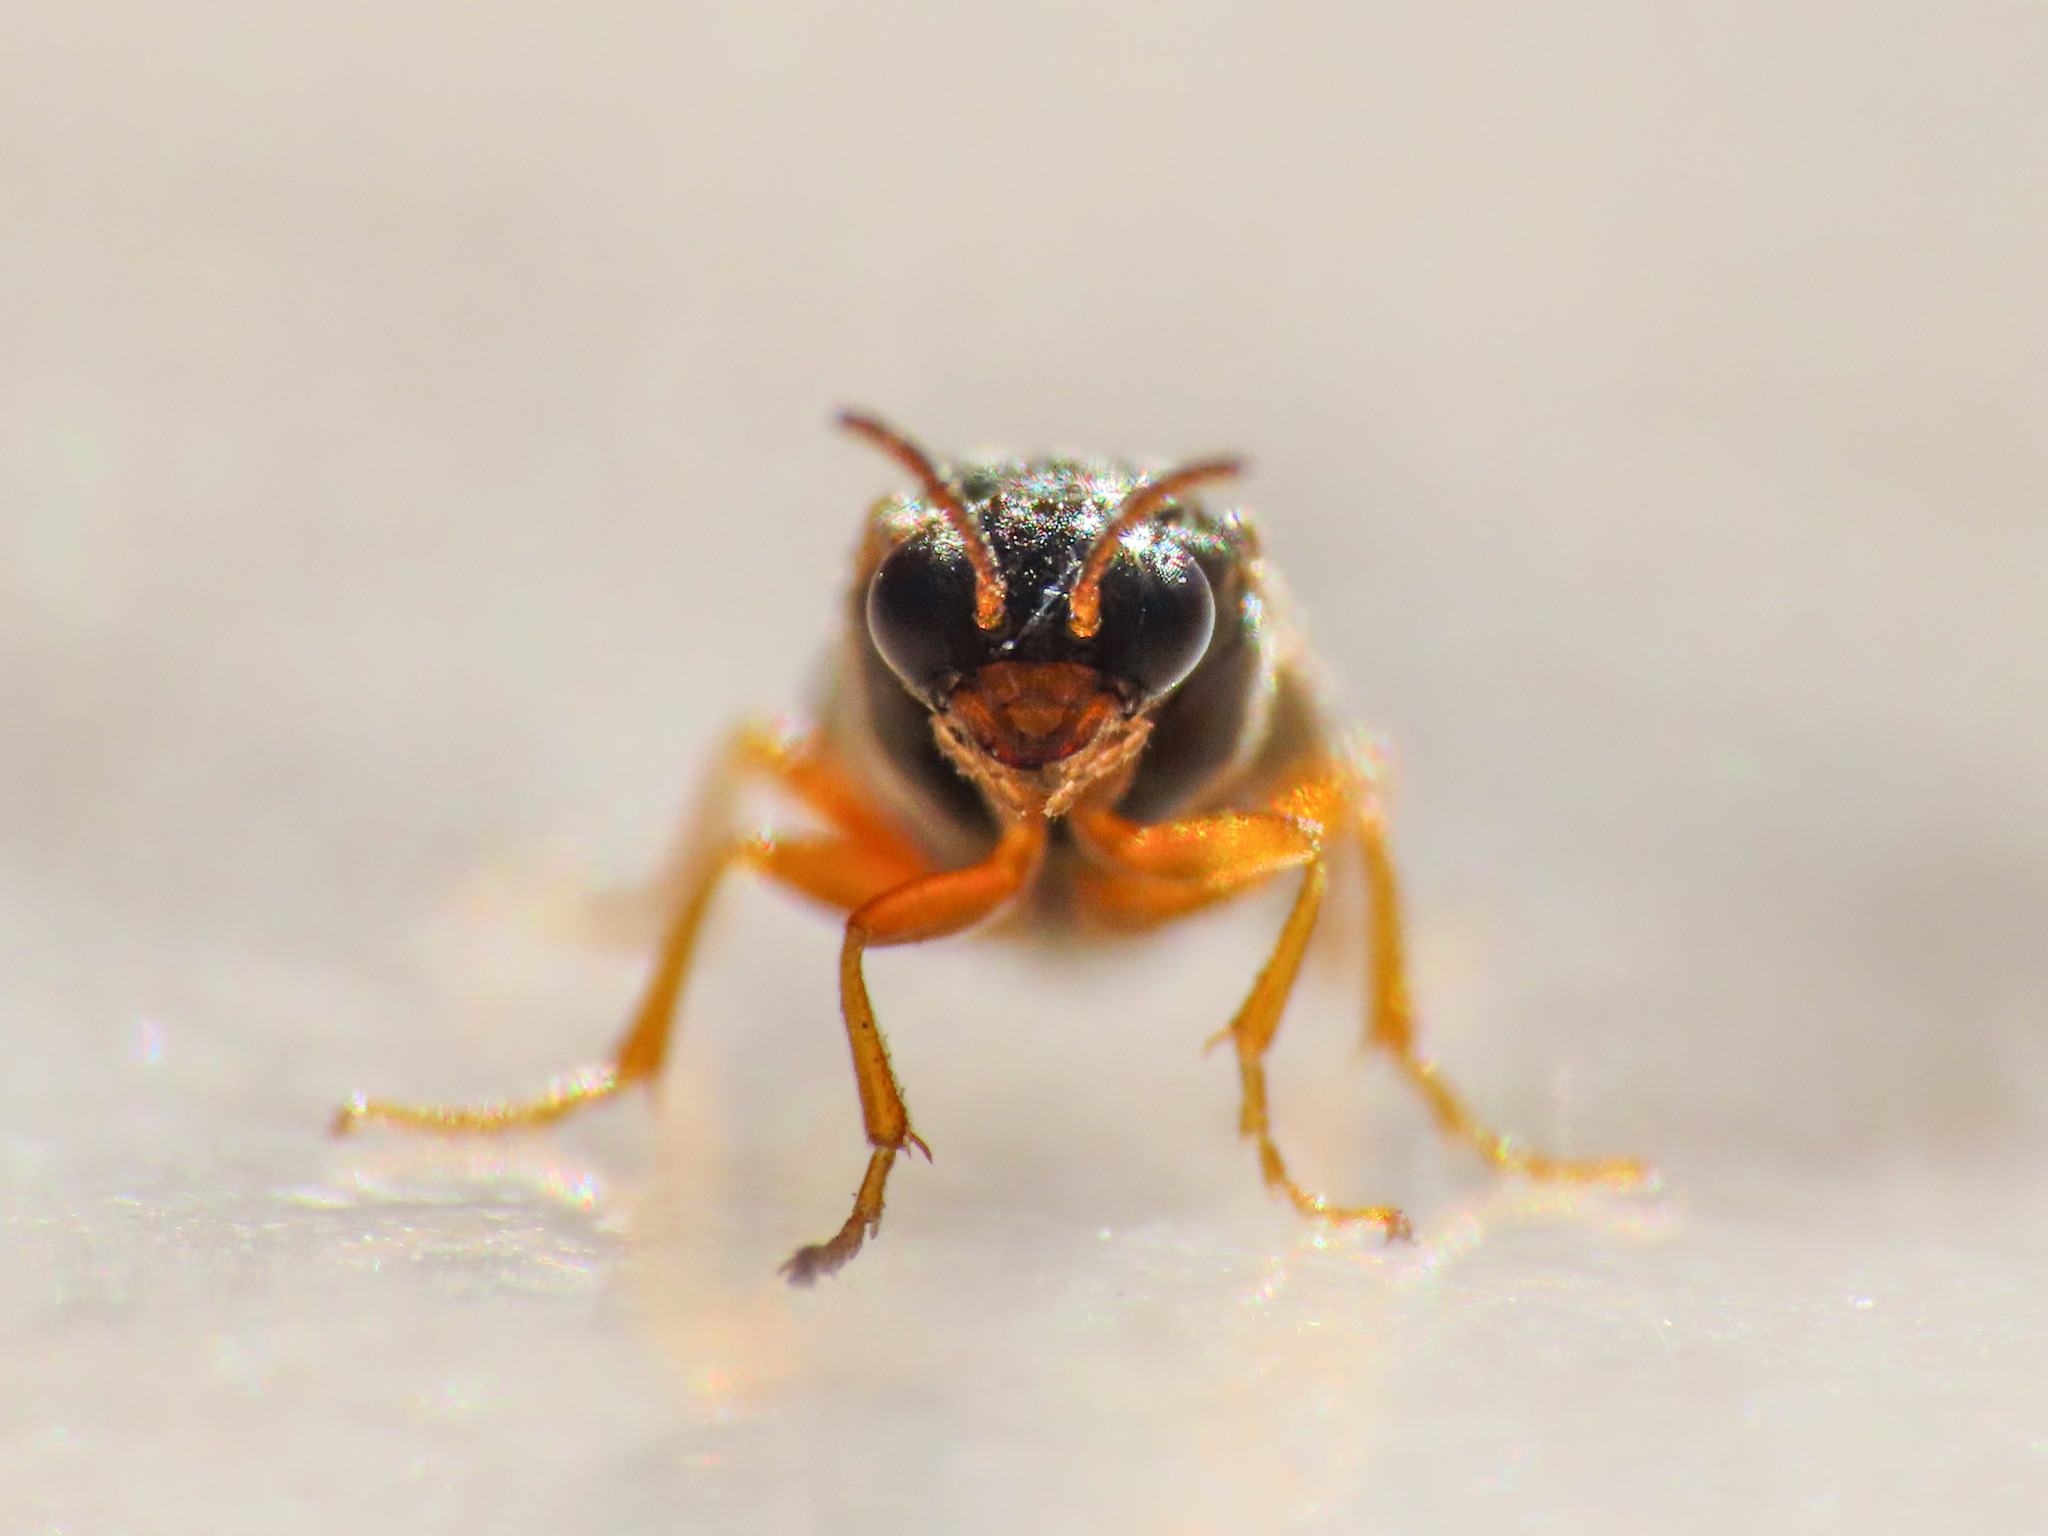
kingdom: Animalia
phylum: Arthropoda
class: Insecta
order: Hymenoptera
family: Tenthredinidae
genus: Hoplocampa
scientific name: Hoplocampa fulvicornis
